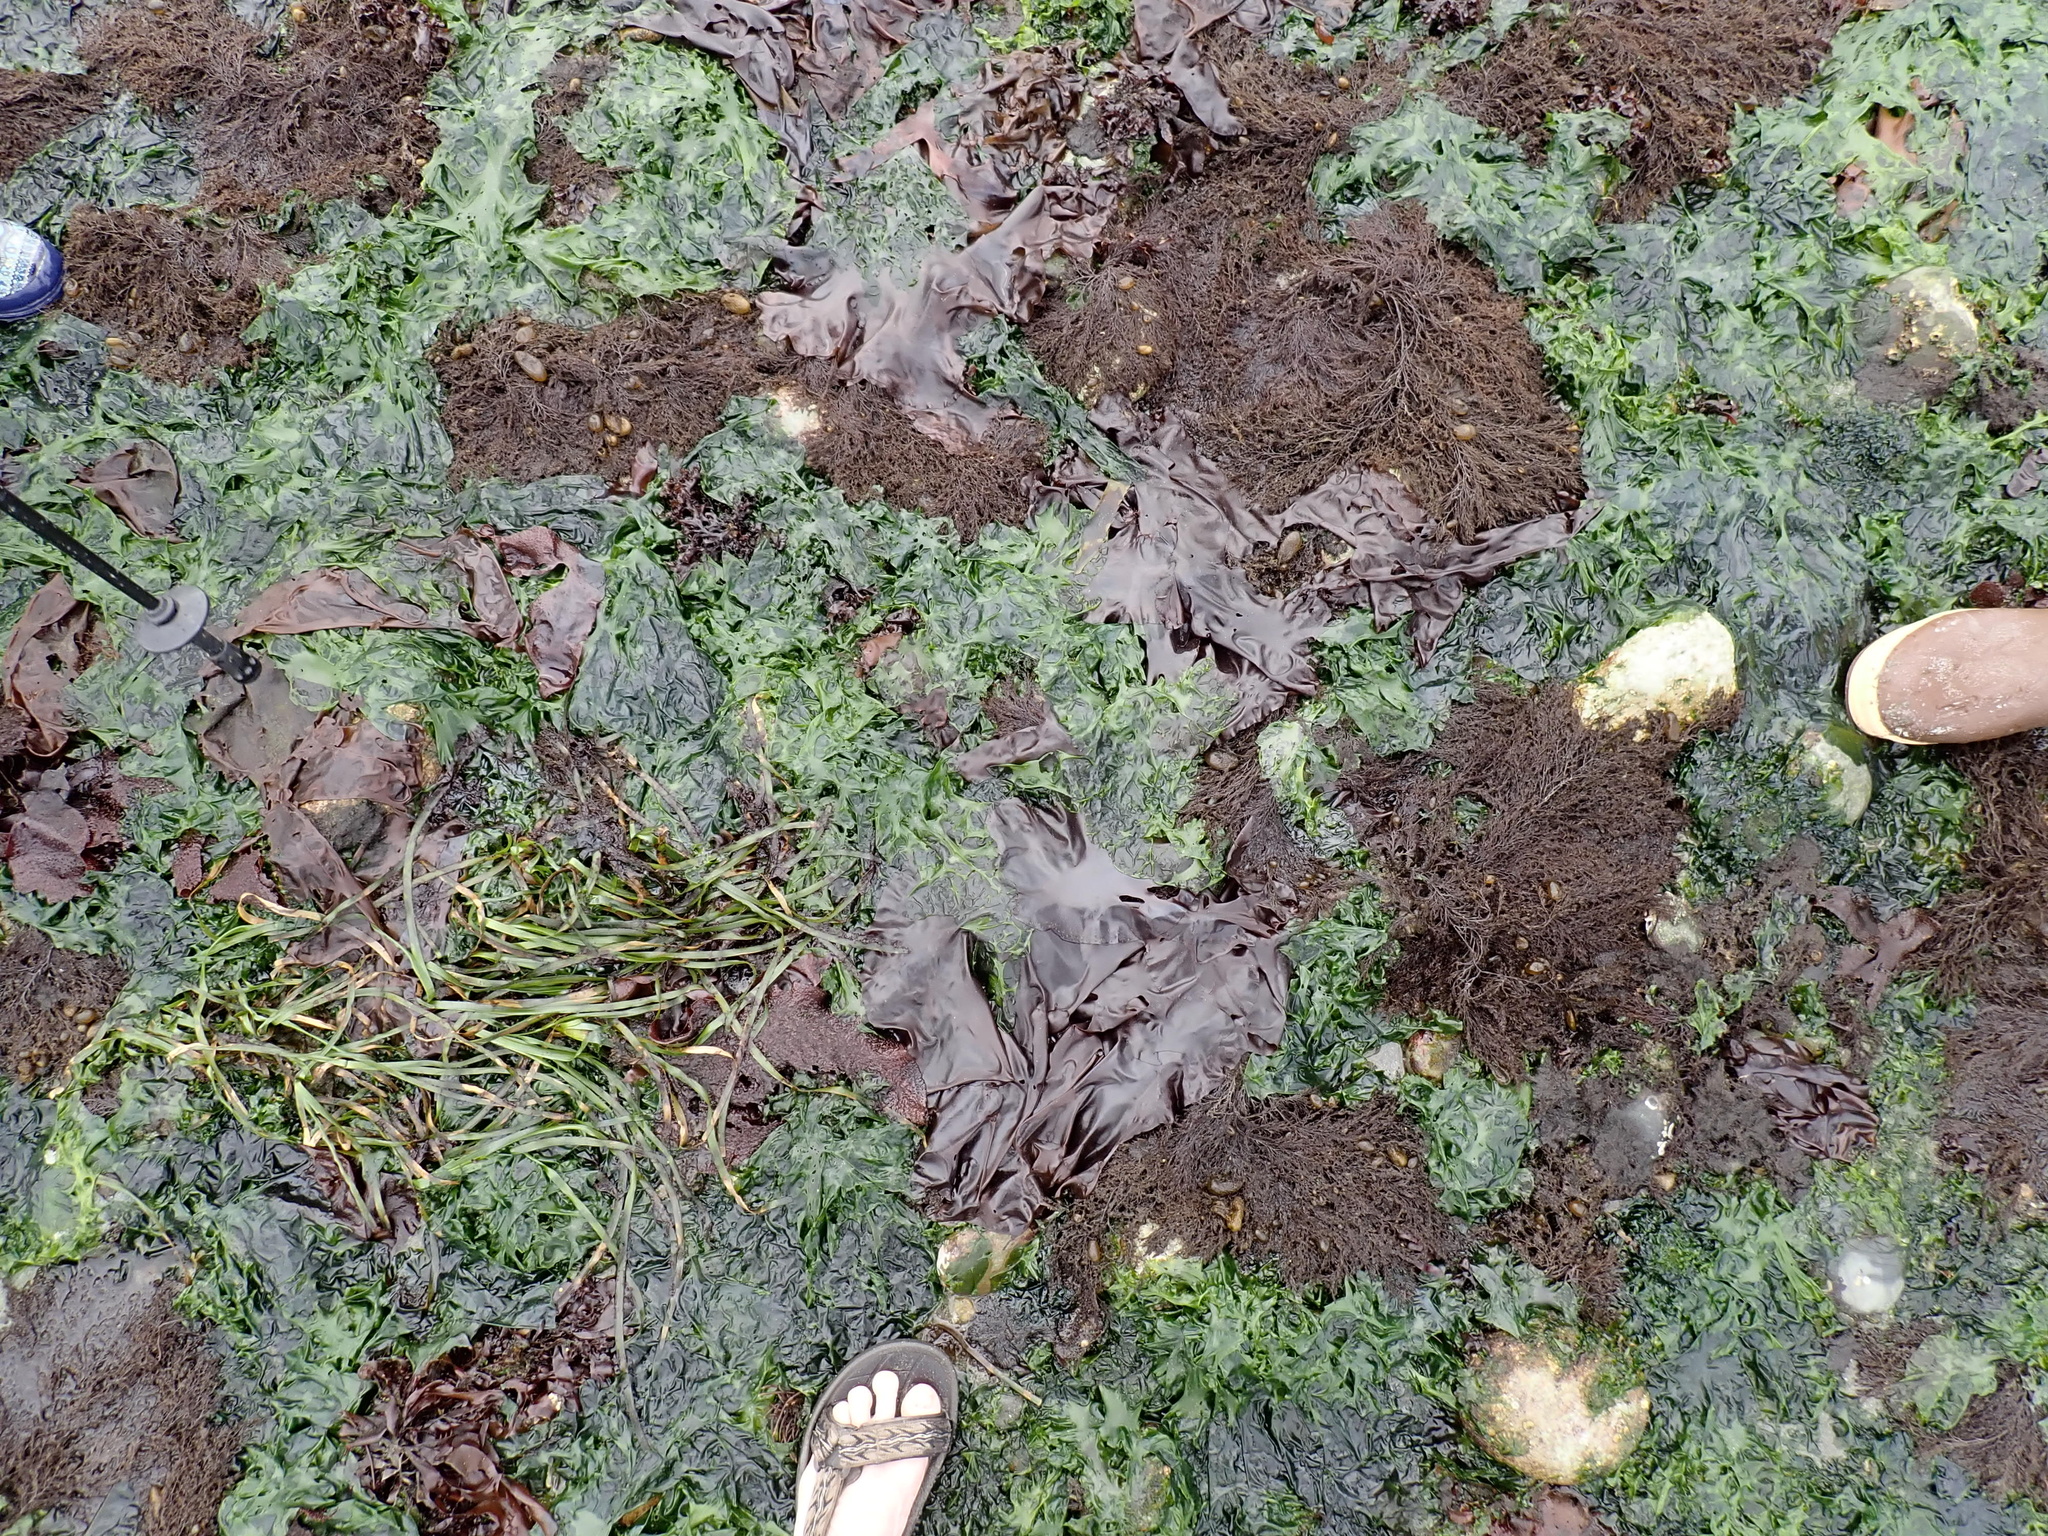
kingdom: Plantae
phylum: Rhodophyta
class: Florideophyceae
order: Ceramiales
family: Rhodomelaceae
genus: Odonthalia
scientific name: Odonthalia floccosa
